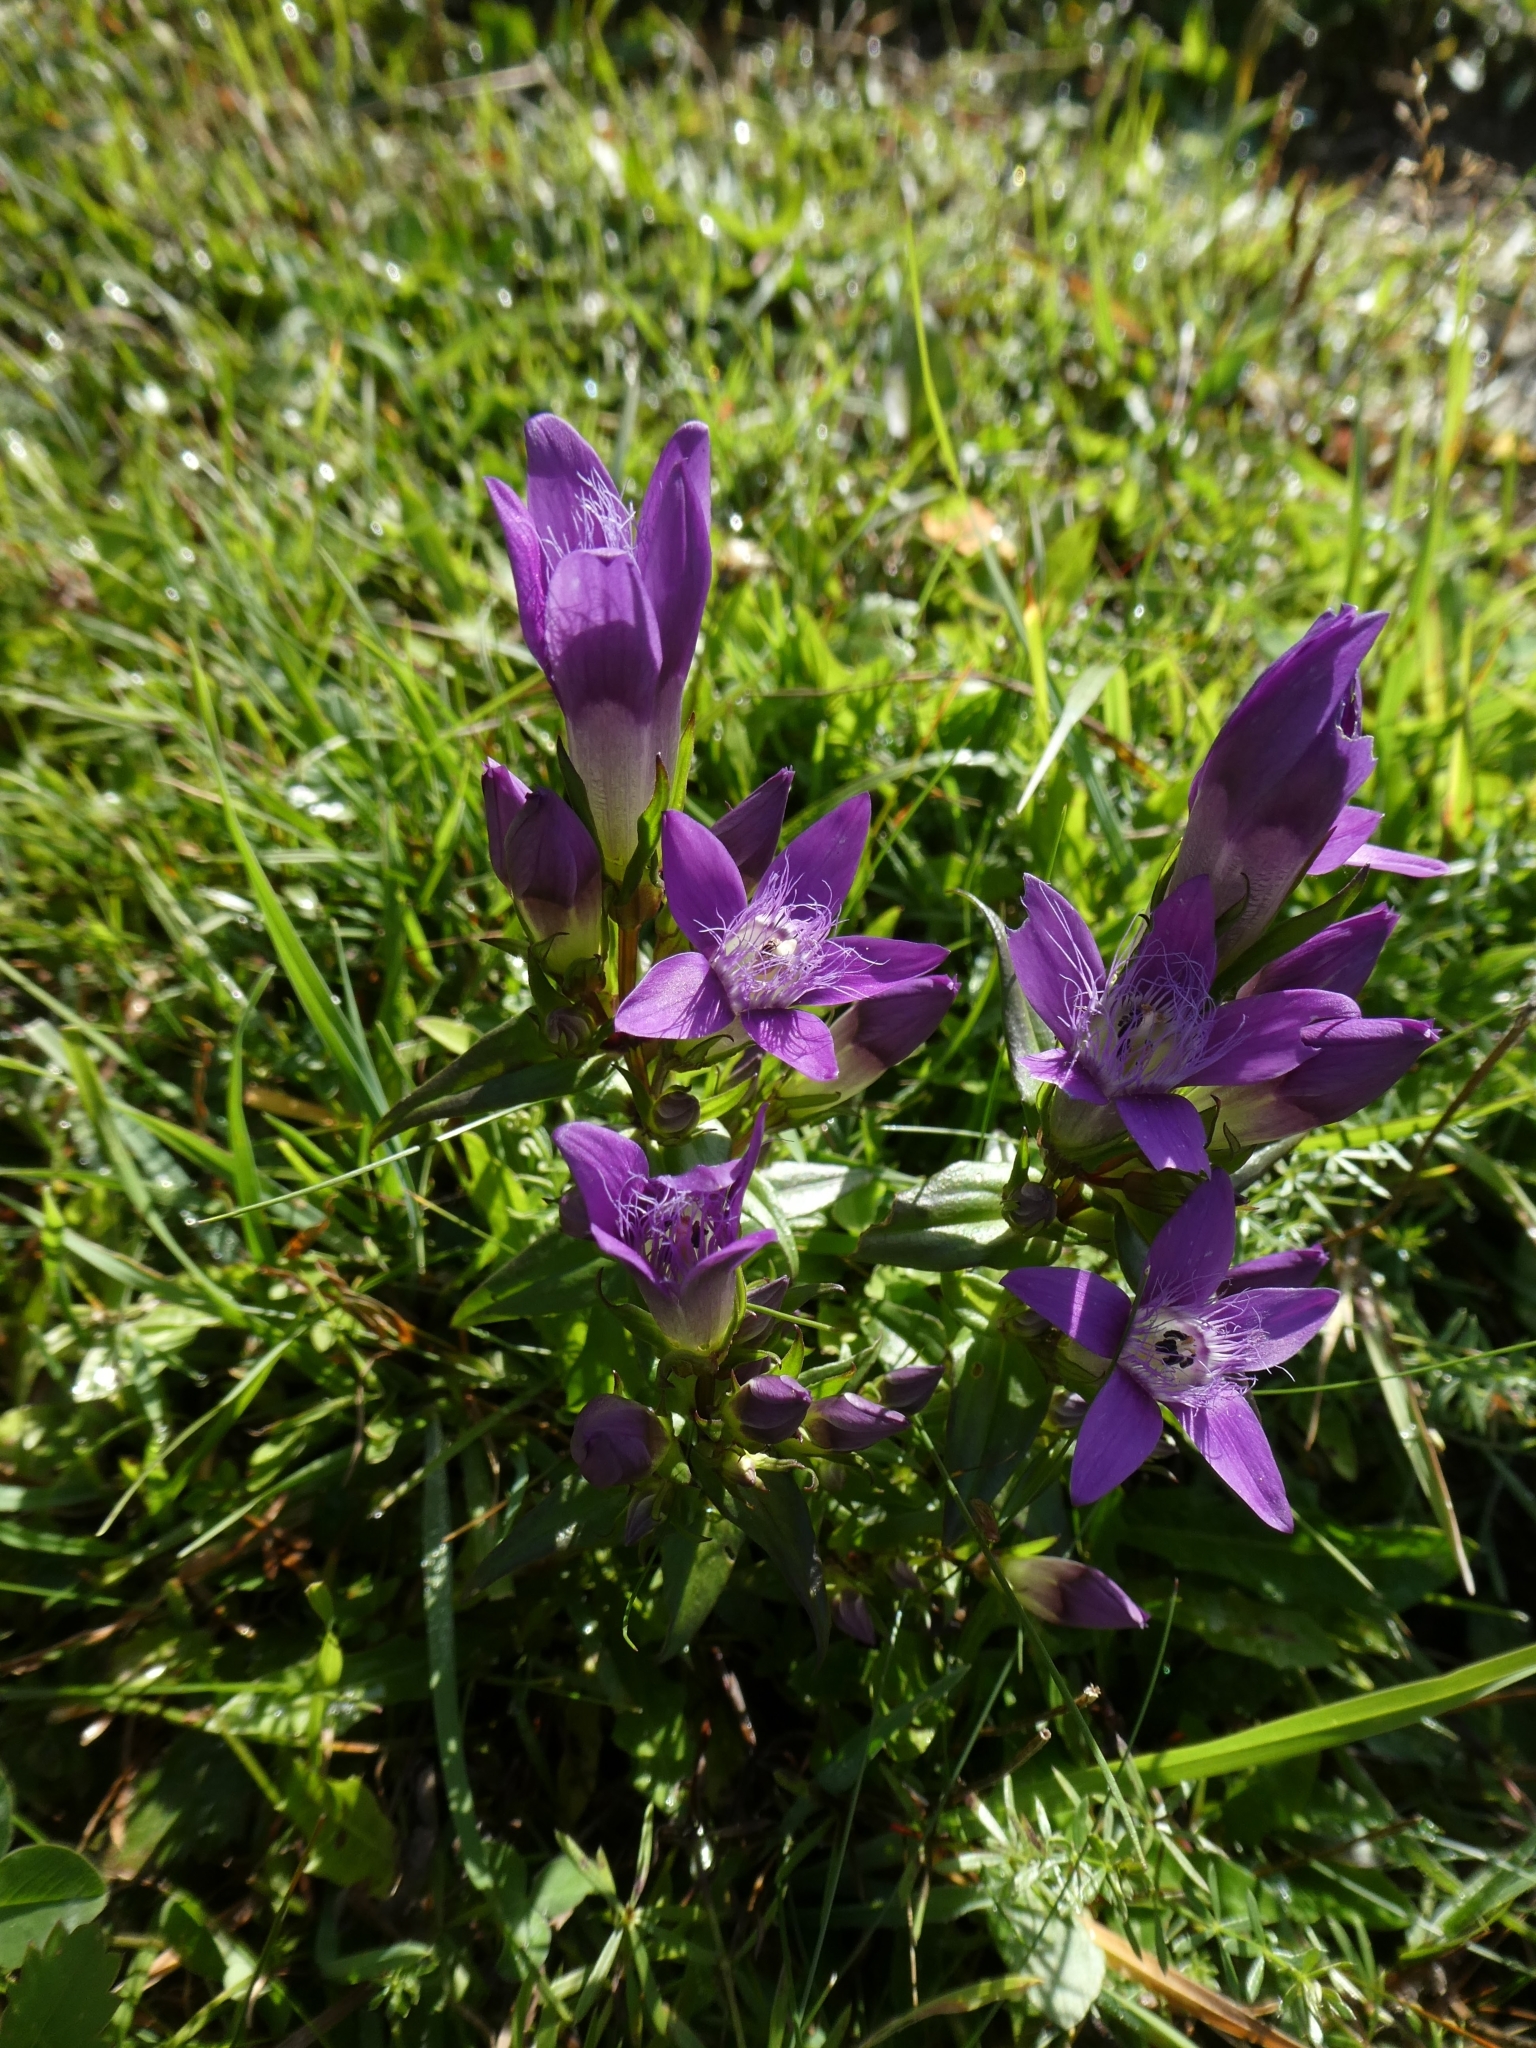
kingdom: Plantae
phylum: Tracheophyta
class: Magnoliopsida
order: Gentianales
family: Gentianaceae
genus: Gentianella
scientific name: Gentianella austriaca
